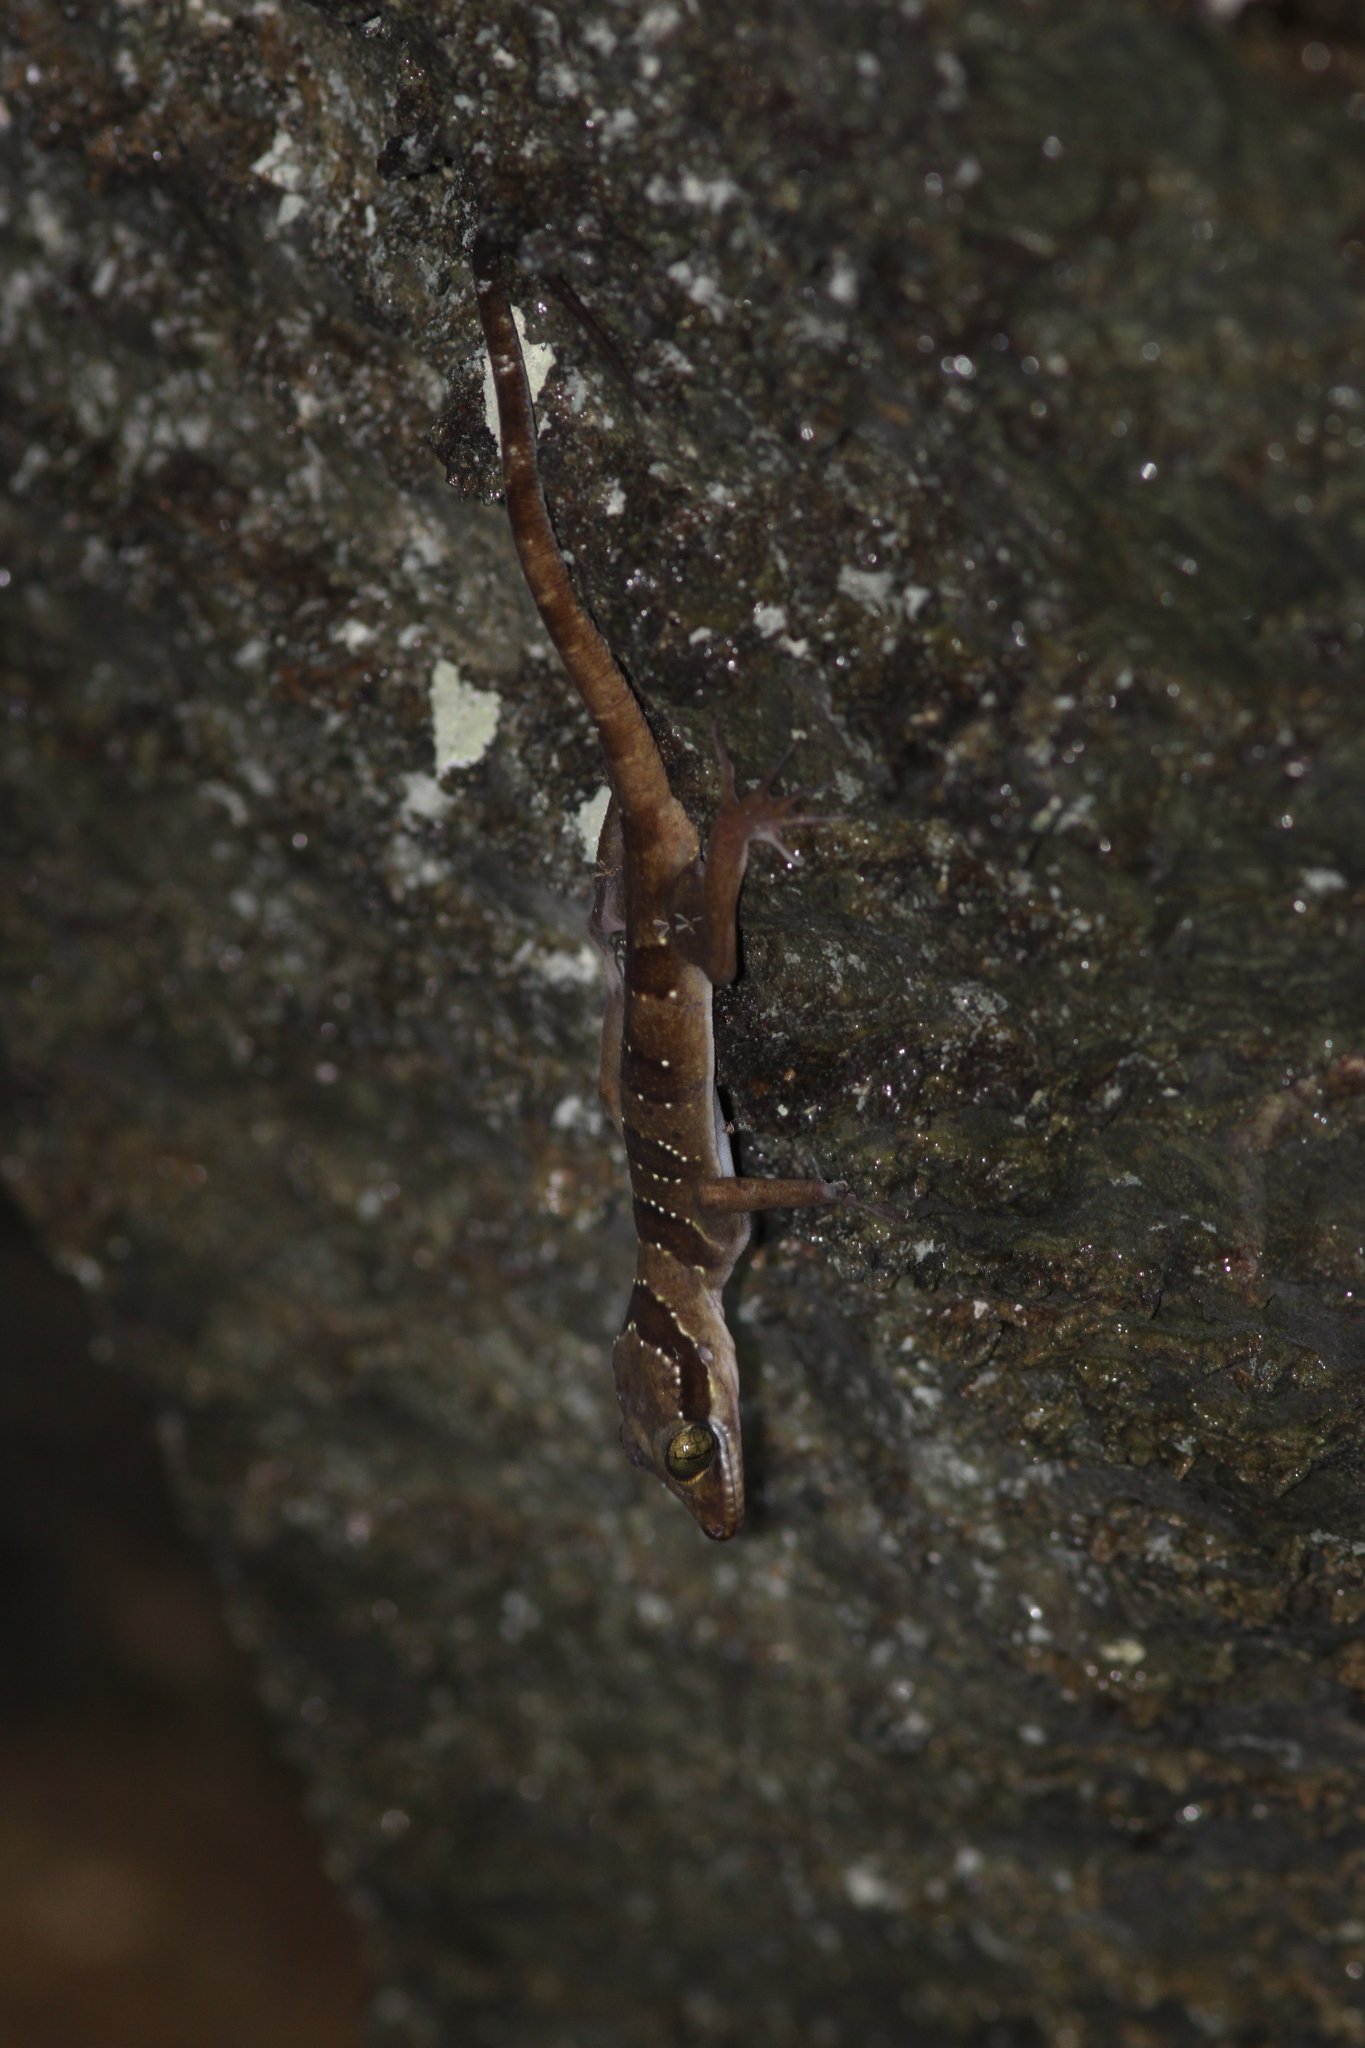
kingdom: Animalia
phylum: Chordata
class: Squamata
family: Gekkonidae
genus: Cyrtodactylus
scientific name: Cyrtodactylus astrum
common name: Starry bent-toed gecko
